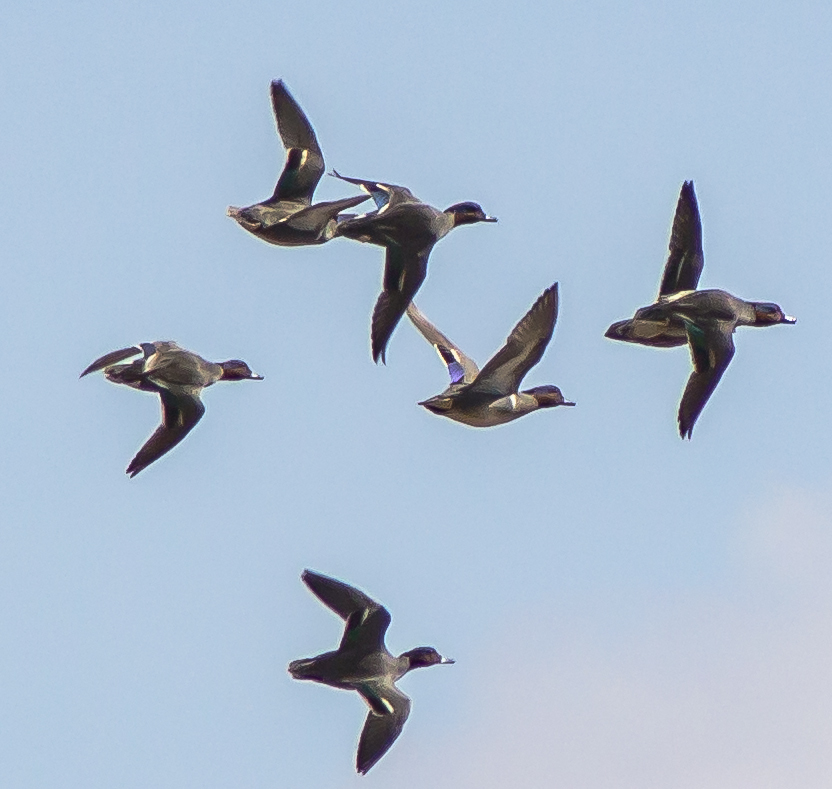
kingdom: Animalia
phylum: Chordata
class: Aves
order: Anseriformes
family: Anatidae
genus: Anas
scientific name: Anas crecca
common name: Eurasian teal
